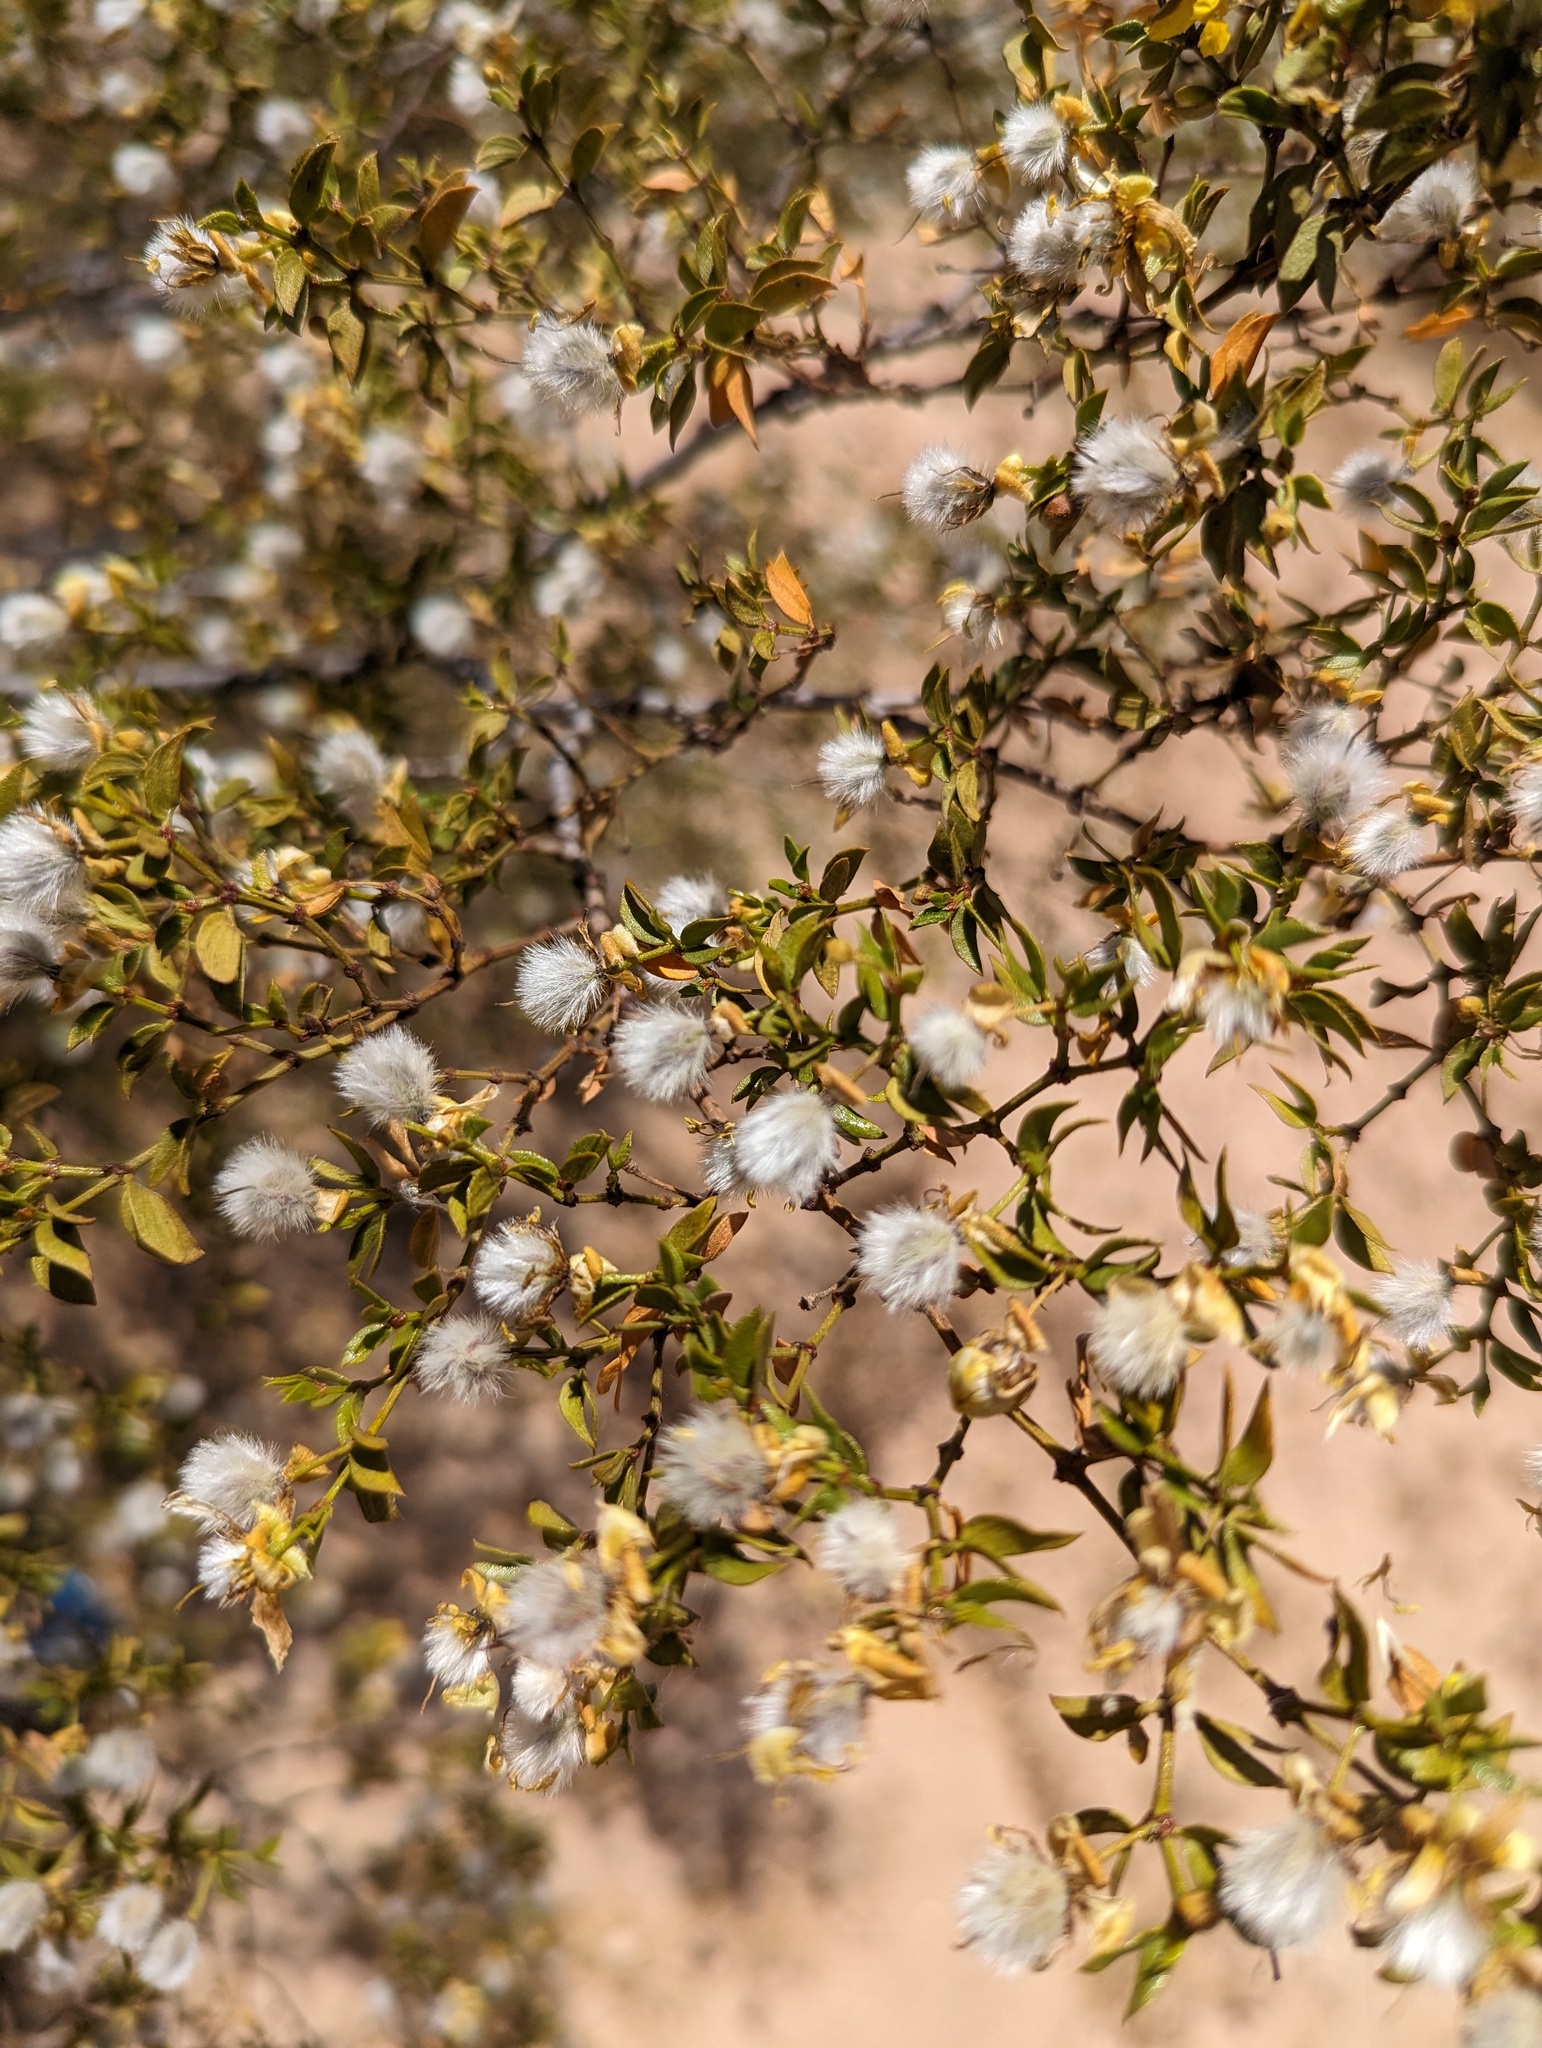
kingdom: Plantae
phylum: Tracheophyta
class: Magnoliopsida
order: Zygophyllales
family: Zygophyllaceae
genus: Larrea
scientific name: Larrea tridentata
